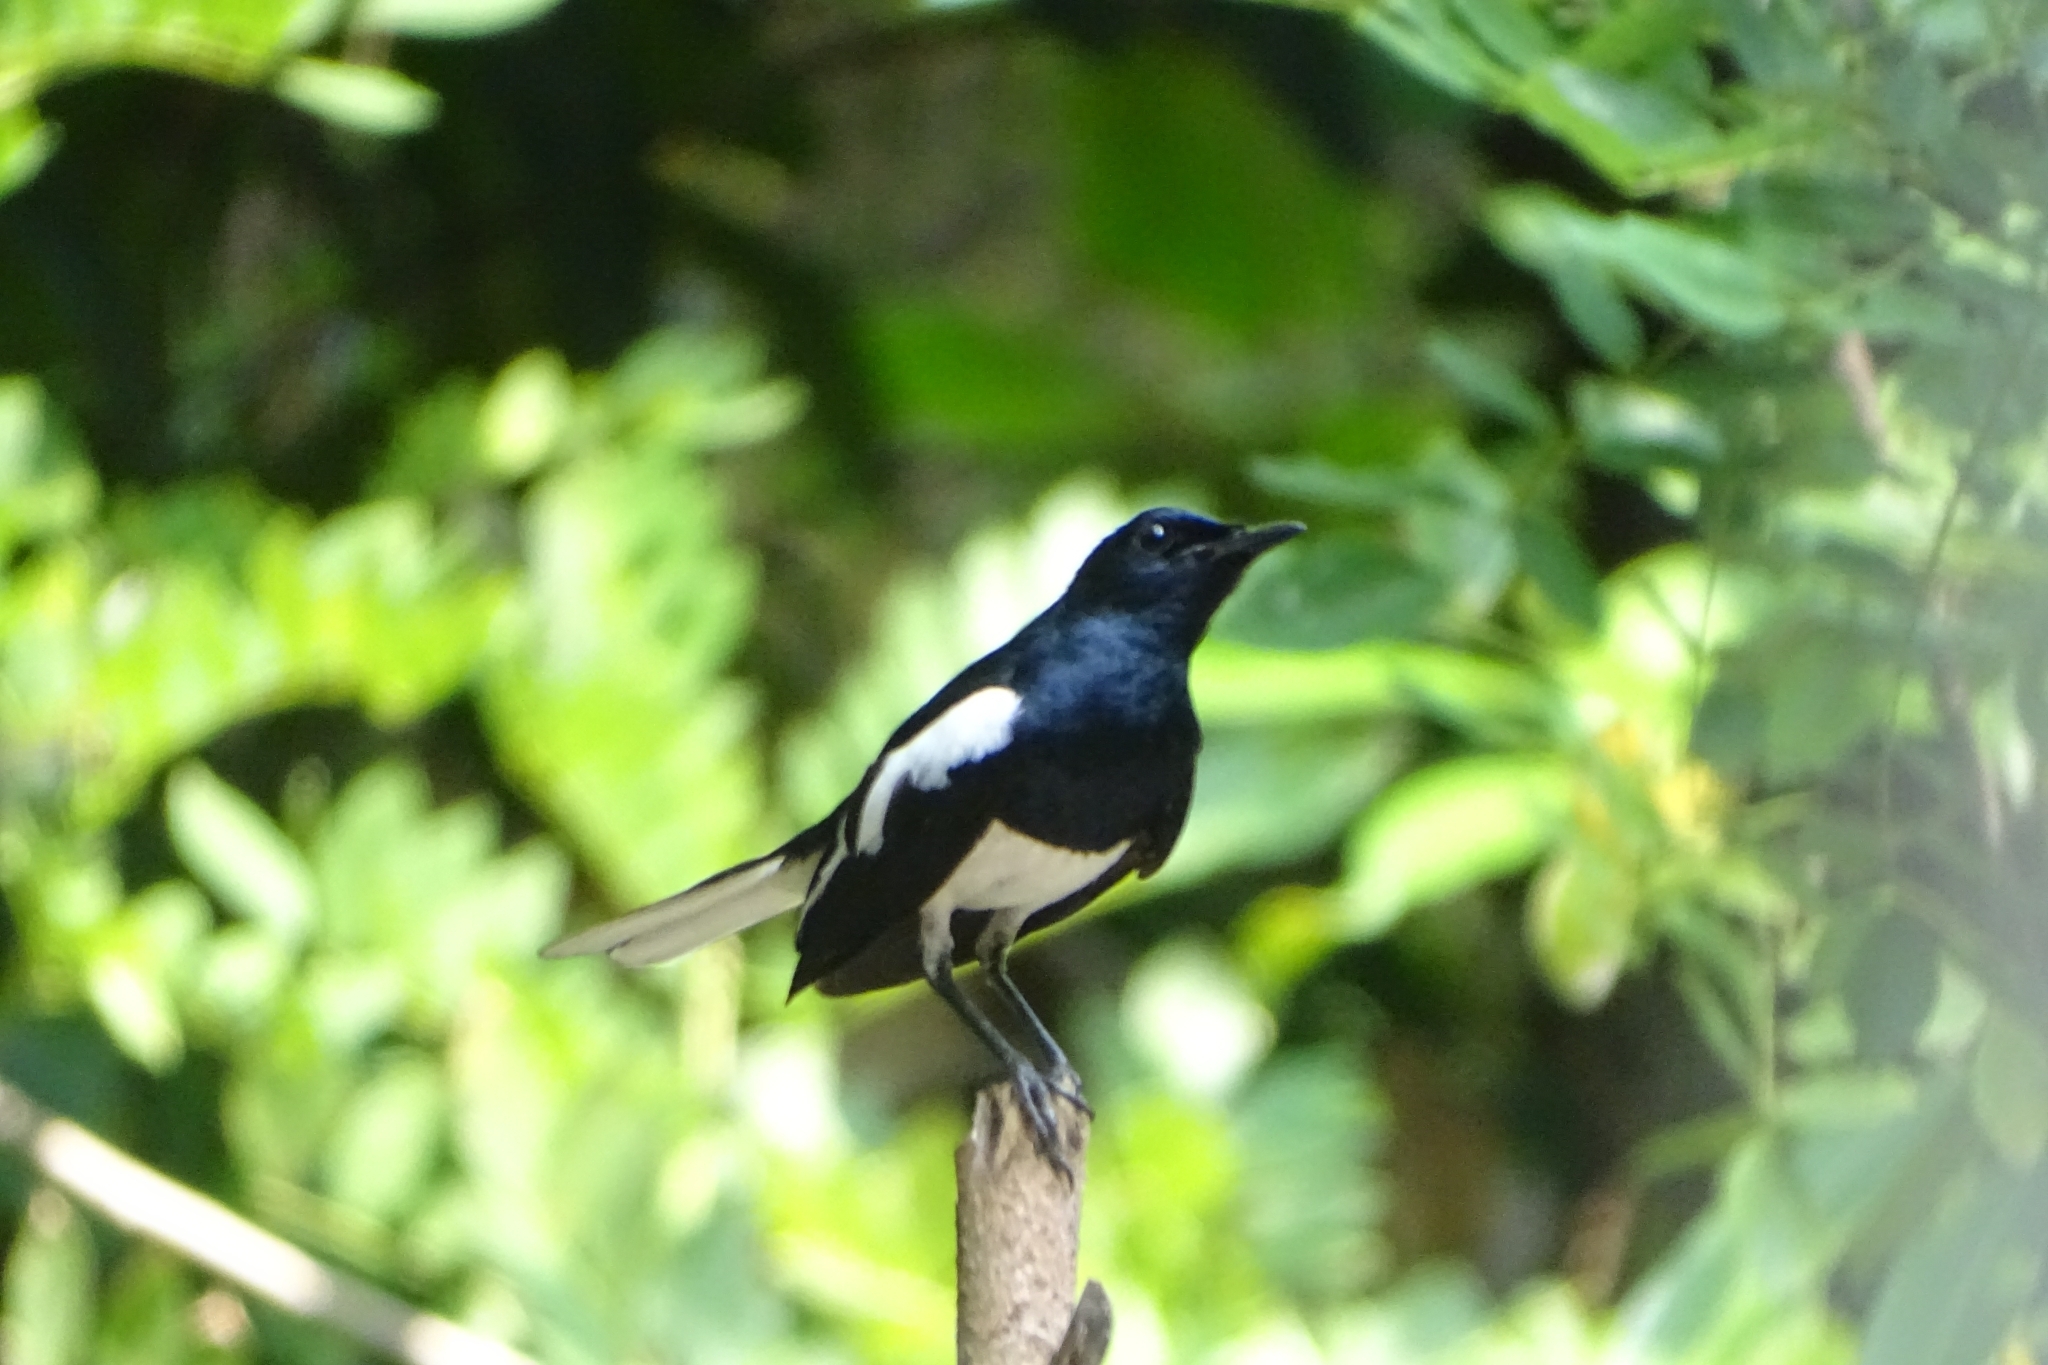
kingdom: Animalia
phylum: Chordata
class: Aves
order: Passeriformes
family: Muscicapidae
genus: Copsychus
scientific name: Copsychus saularis
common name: Oriental magpie-robin
